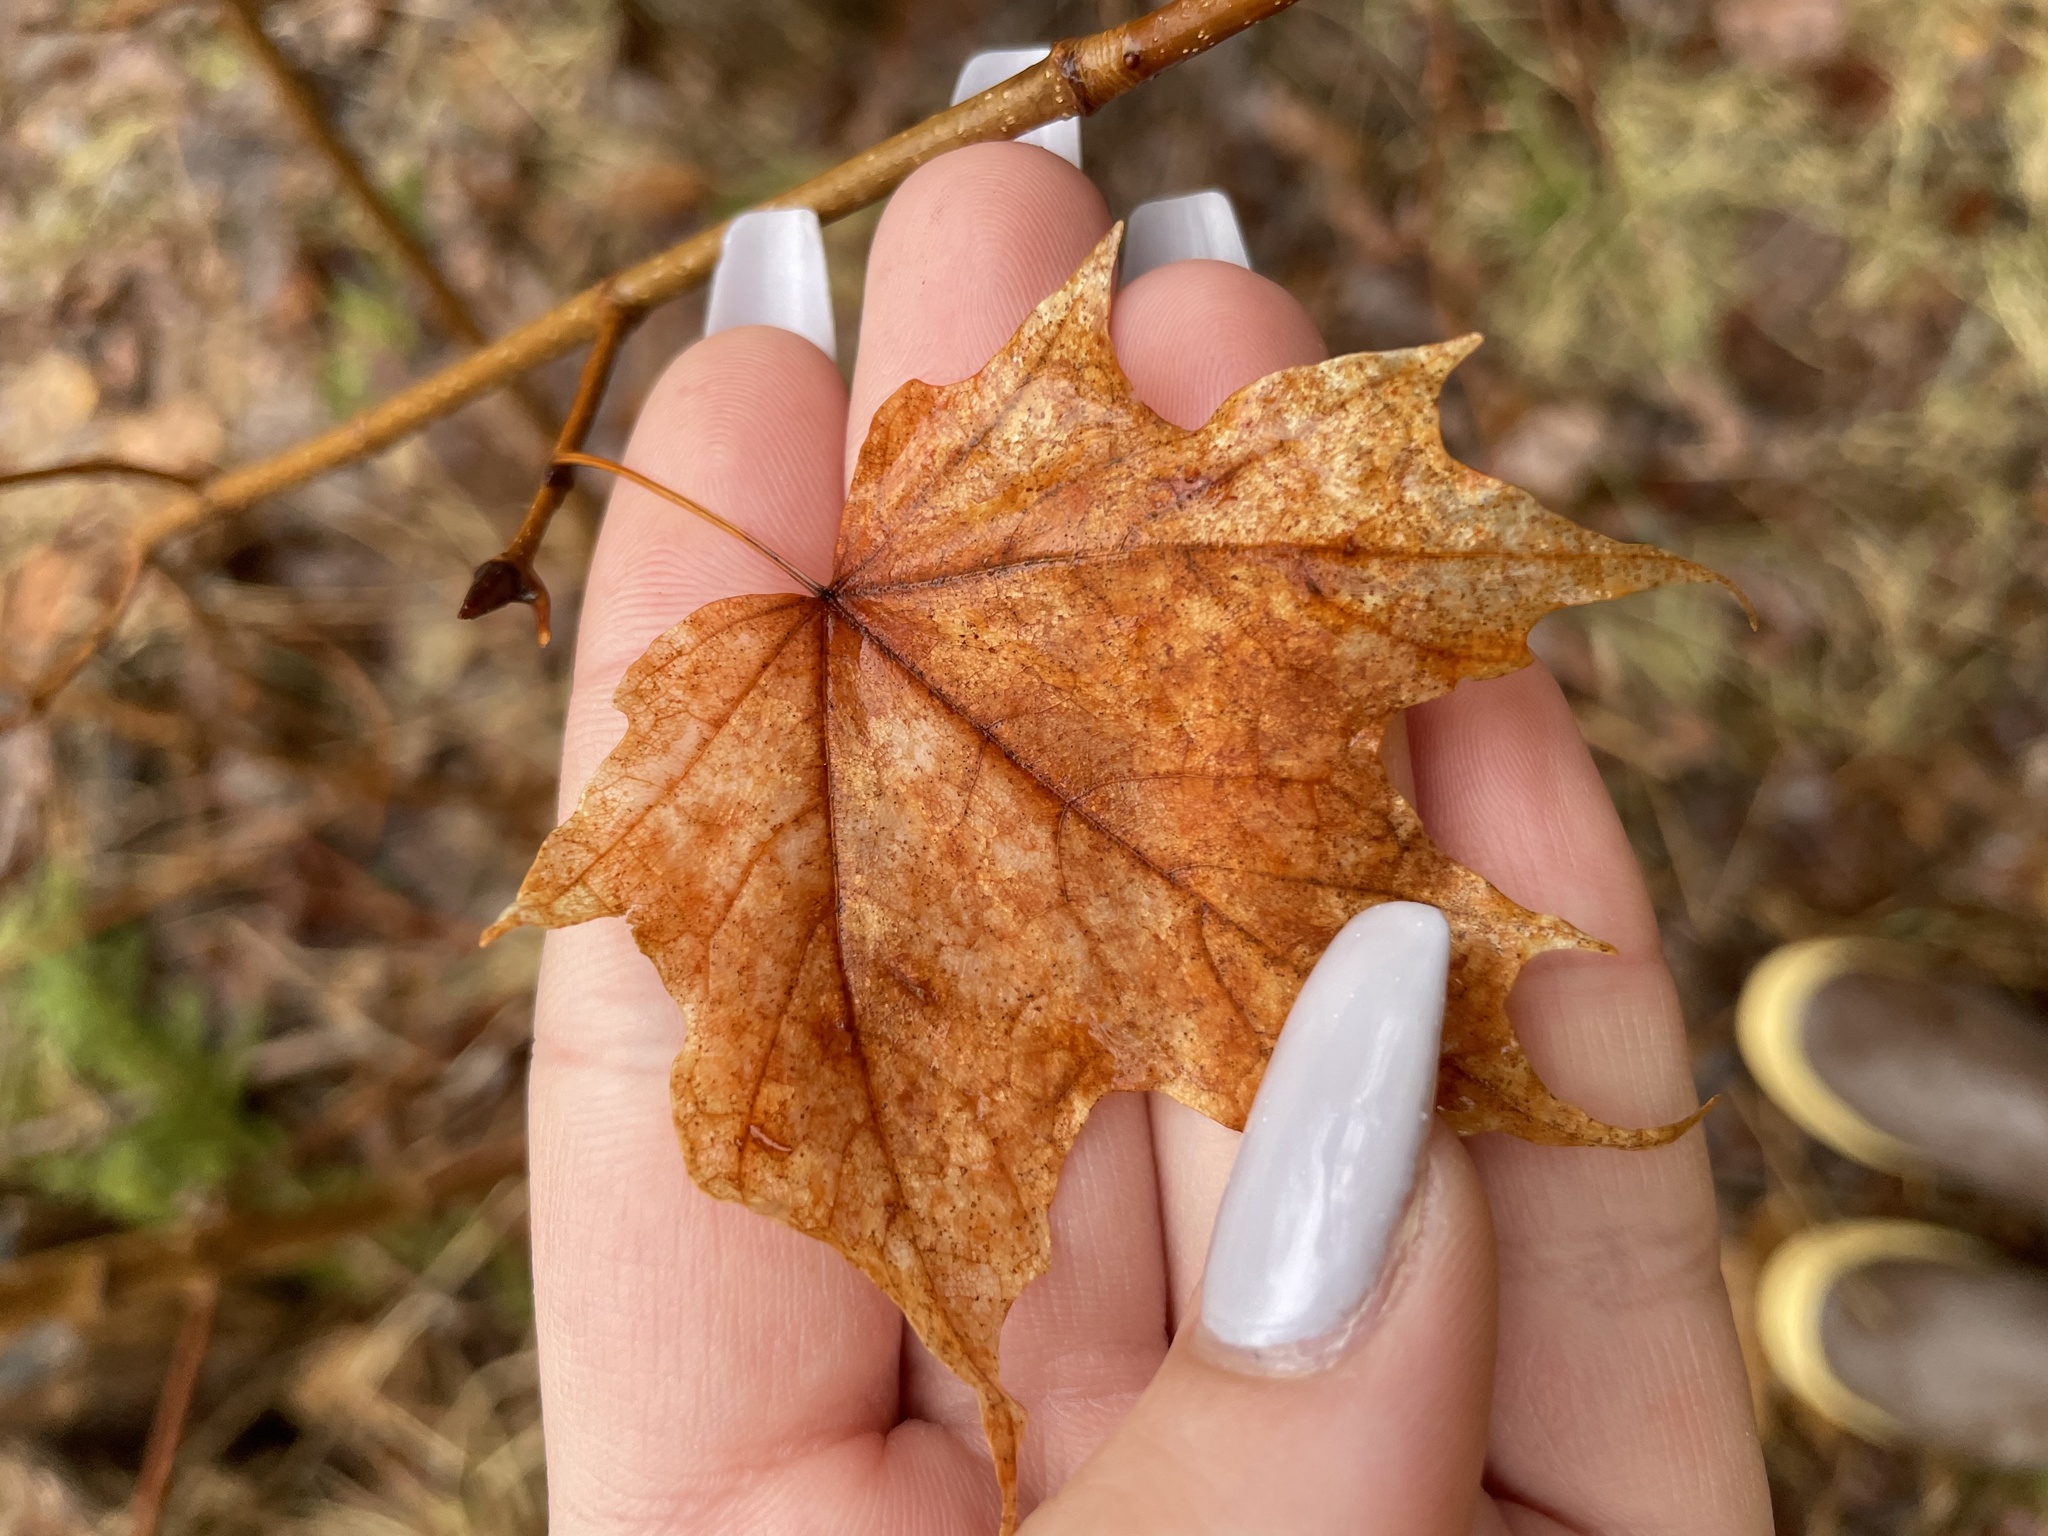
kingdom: Plantae
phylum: Tracheophyta
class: Magnoliopsida
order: Sapindales
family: Sapindaceae
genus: Acer
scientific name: Acer saccharum
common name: Sugar maple
